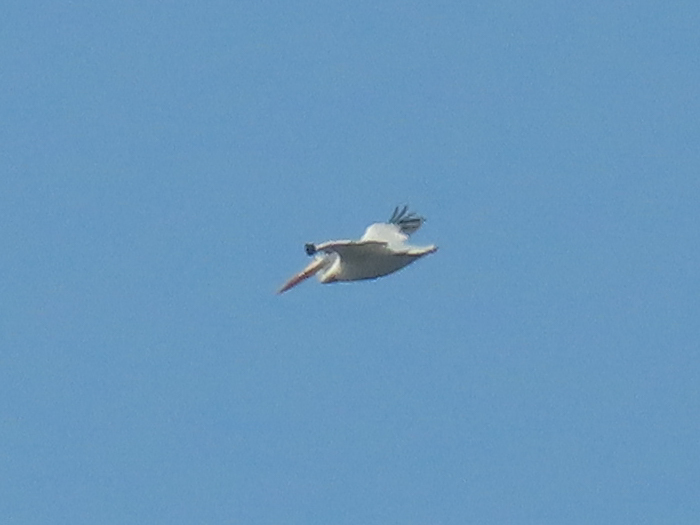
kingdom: Animalia
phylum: Chordata
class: Aves
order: Pelecaniformes
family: Pelecanidae
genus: Pelecanus
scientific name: Pelecanus erythrorhynchos
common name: American white pelican
